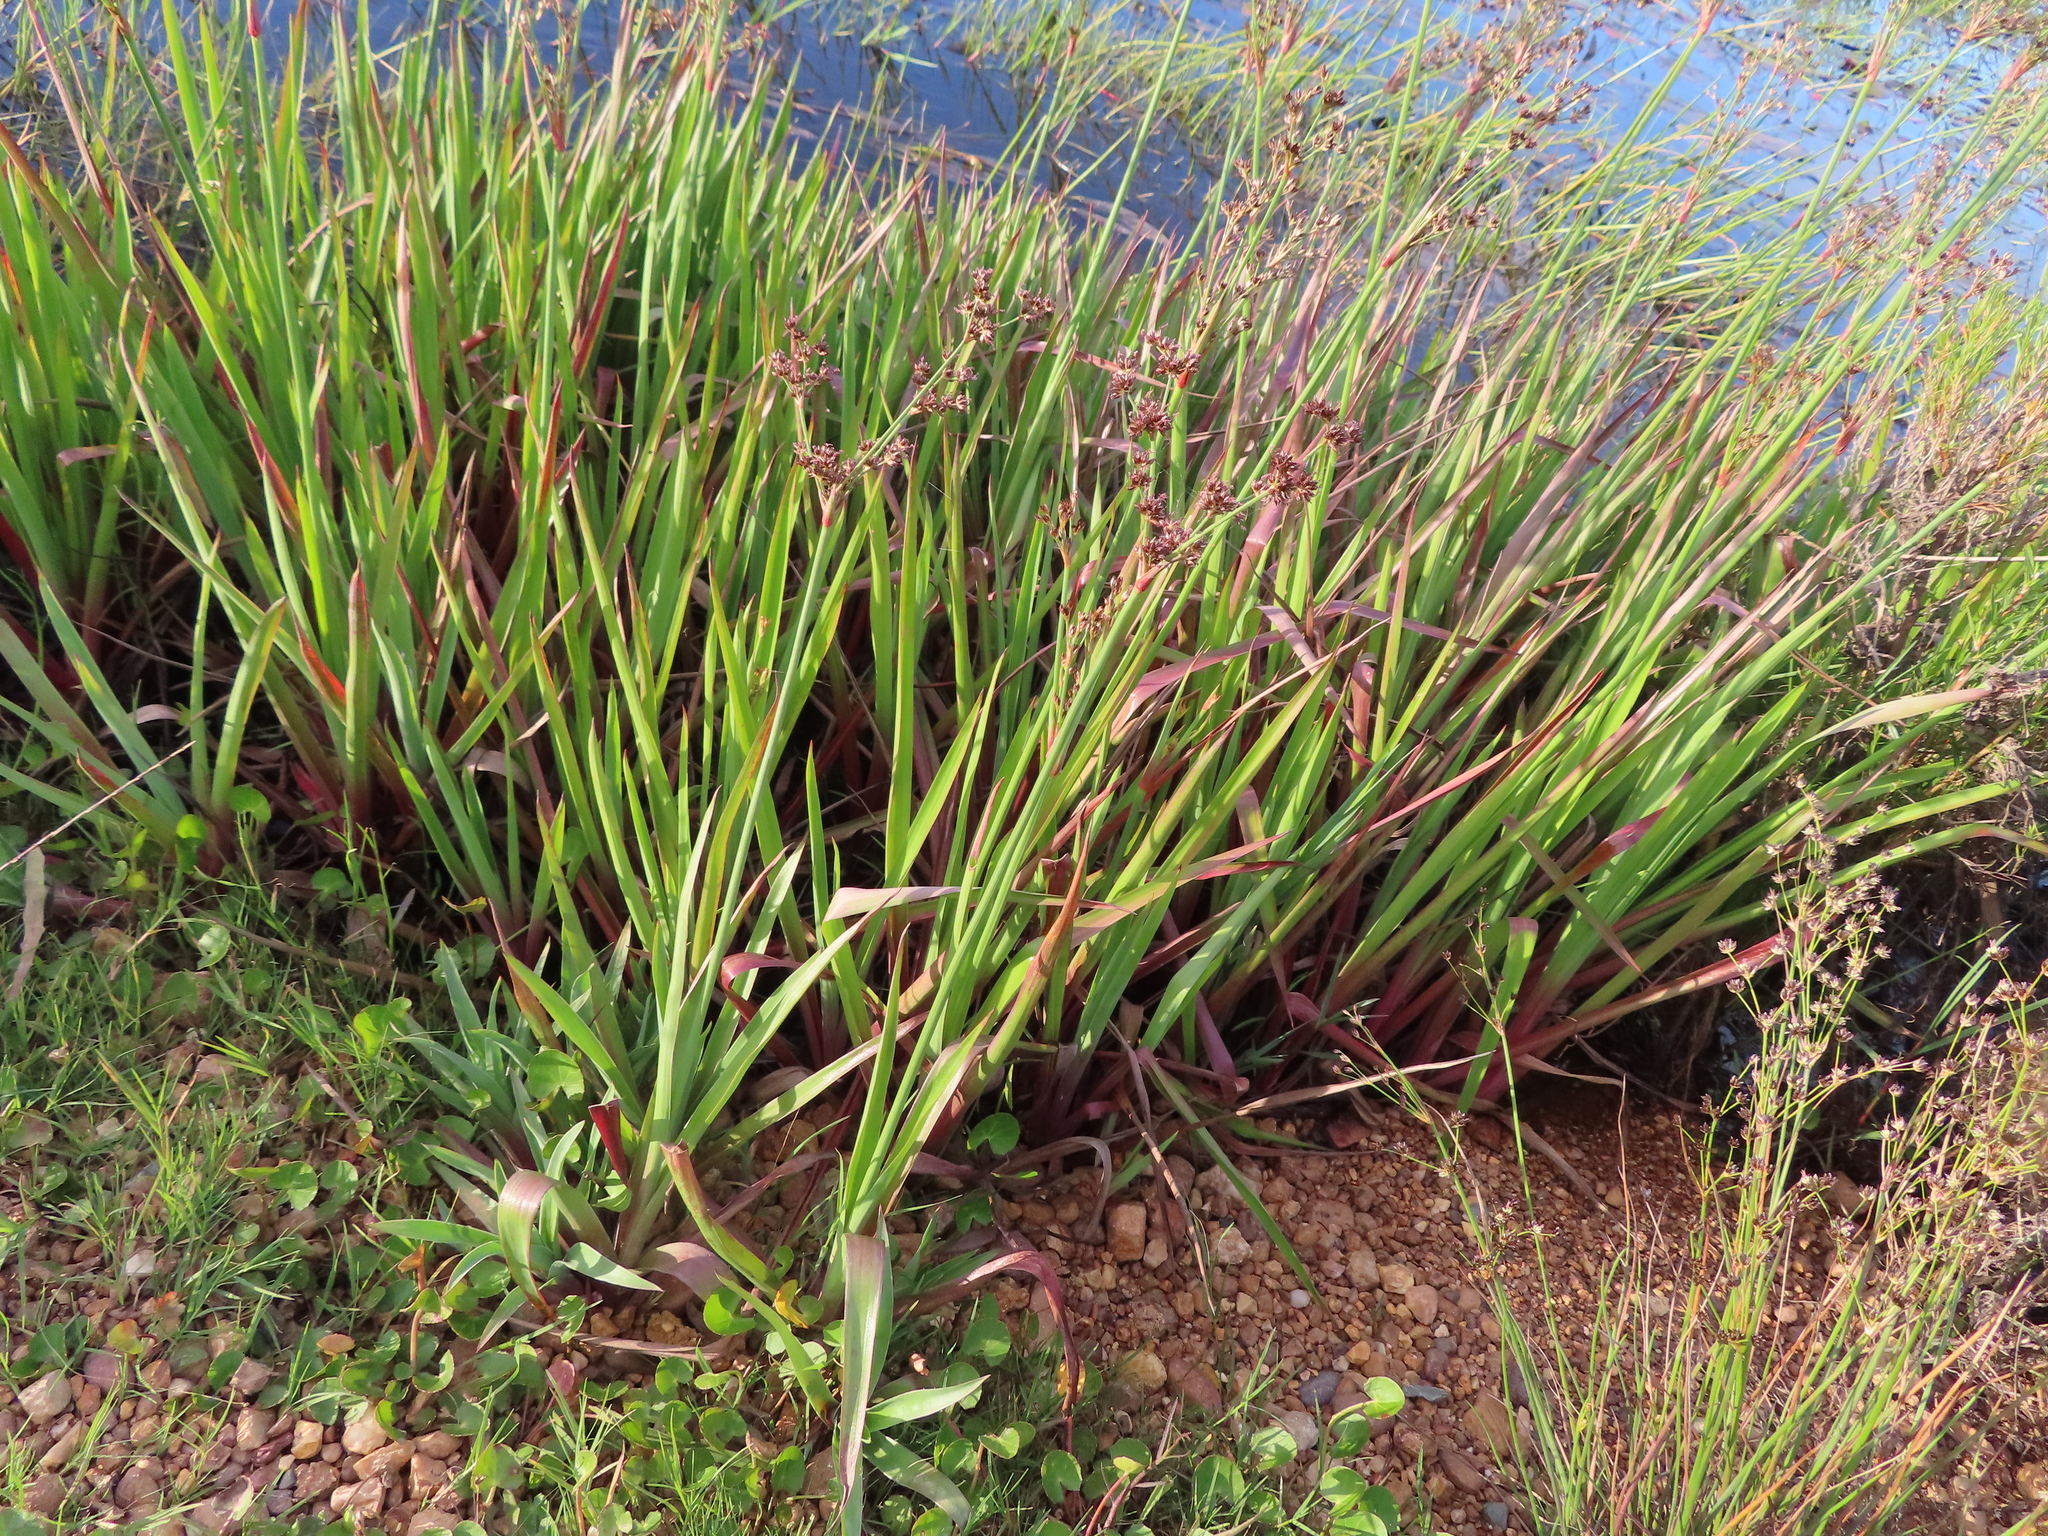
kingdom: Plantae
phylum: Tracheophyta
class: Liliopsida
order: Poales
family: Juncaceae
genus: Juncus
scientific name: Juncus lomatophyllus
